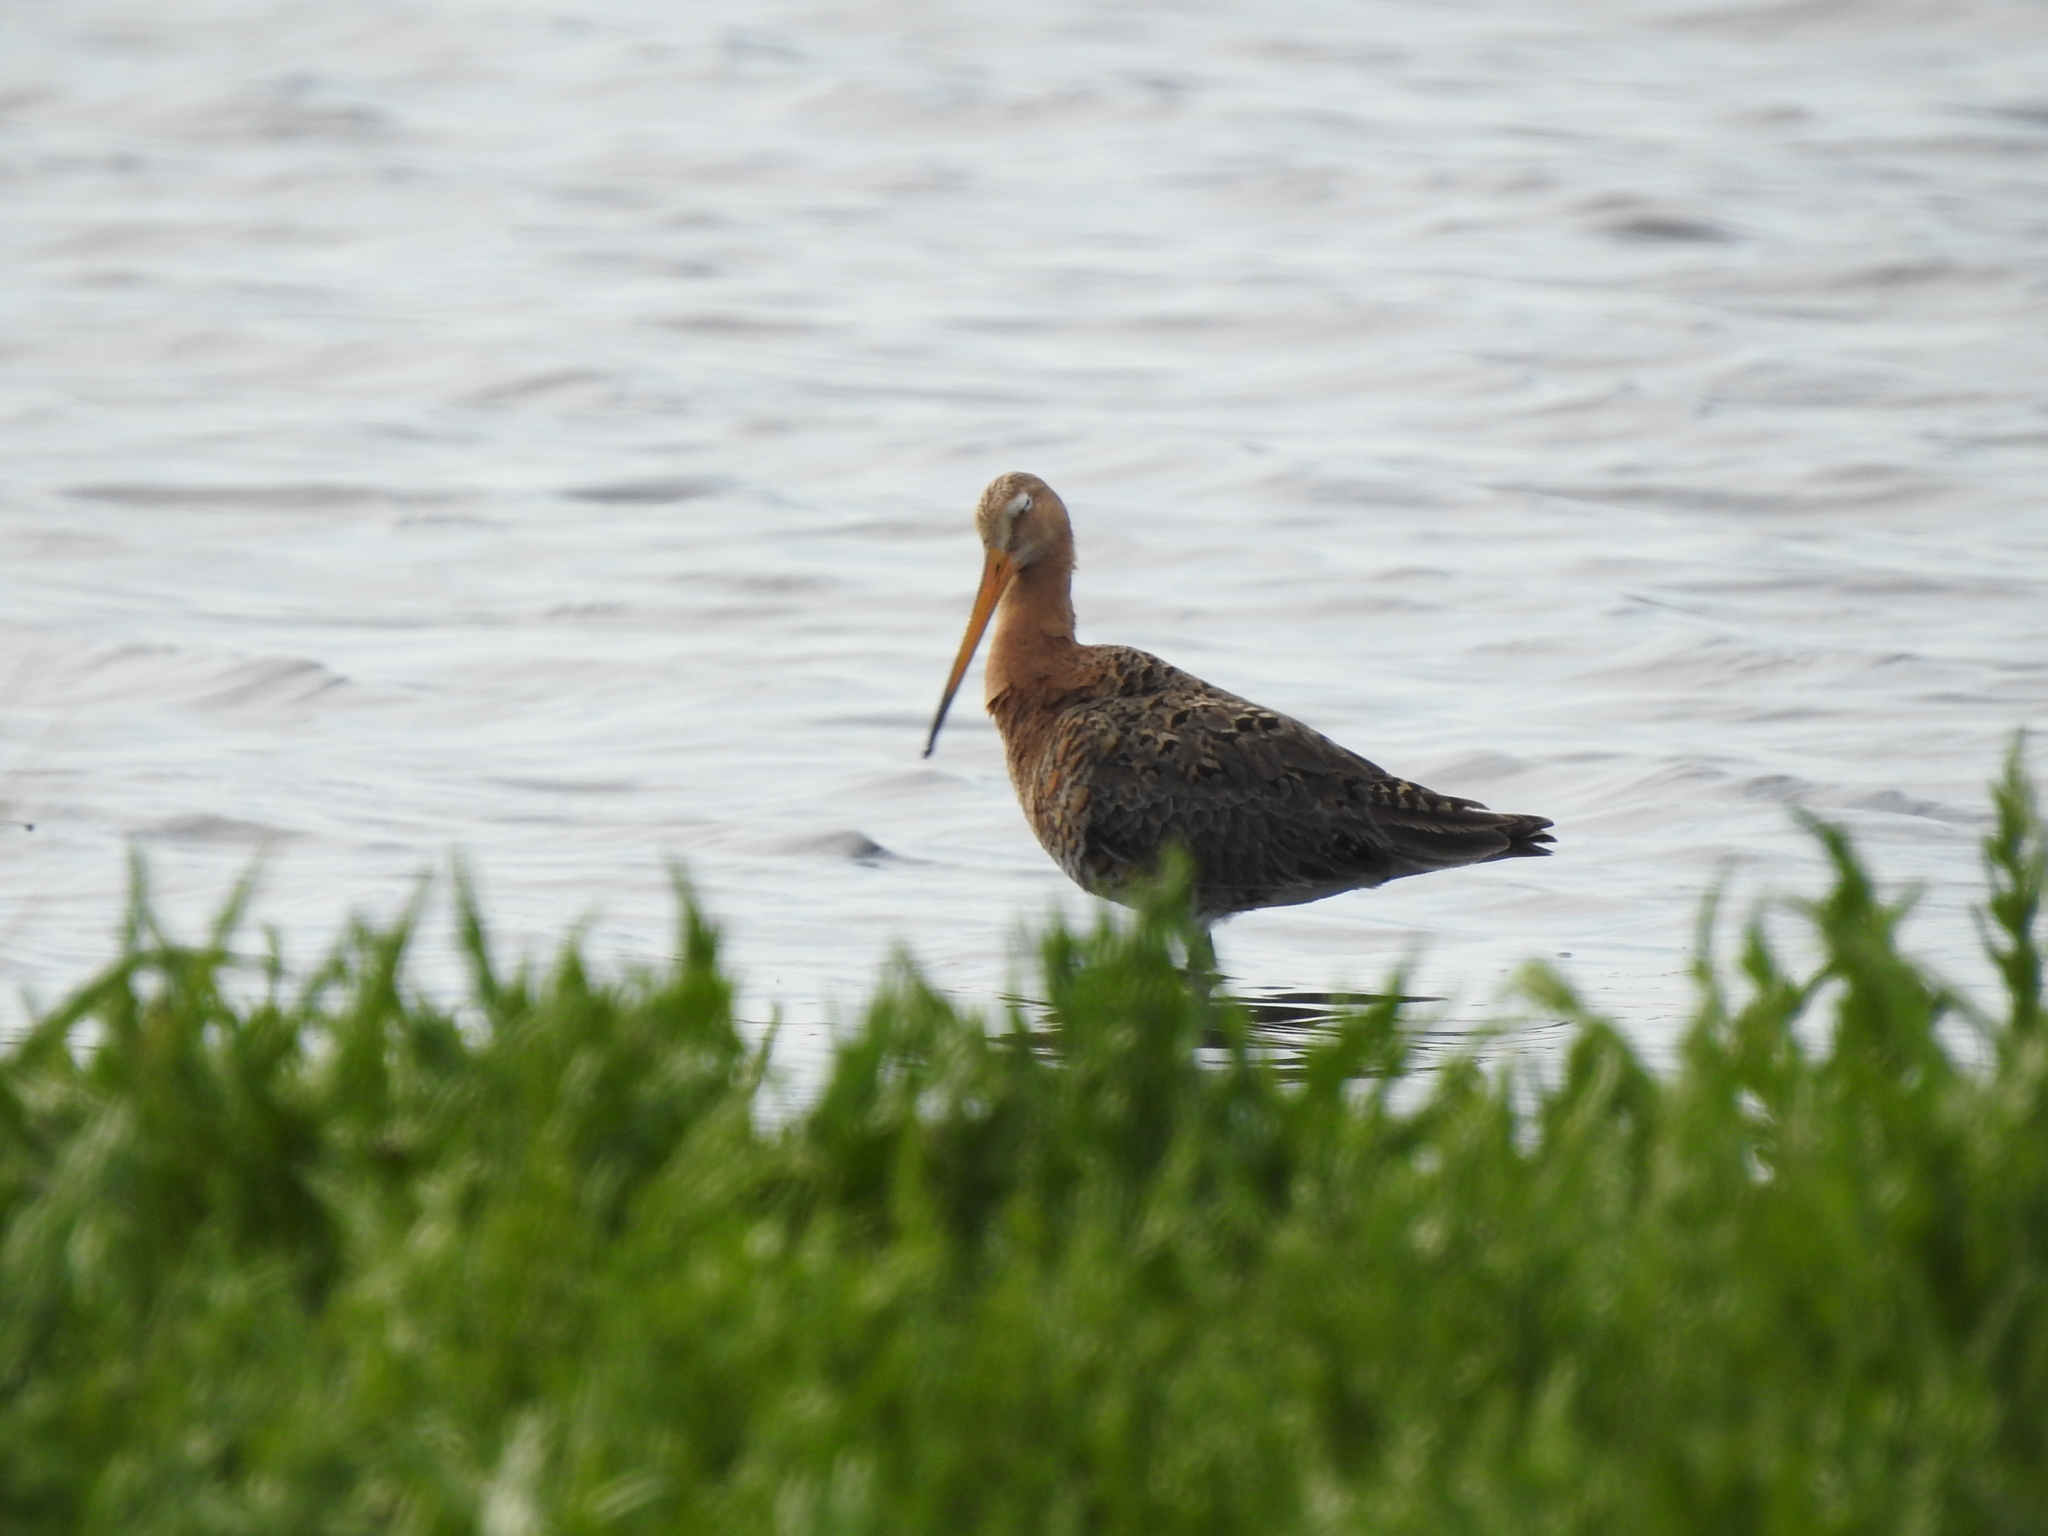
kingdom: Animalia
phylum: Chordata
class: Aves
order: Charadriiformes
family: Scolopacidae
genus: Limosa
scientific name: Limosa limosa
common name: Black-tailed godwit
